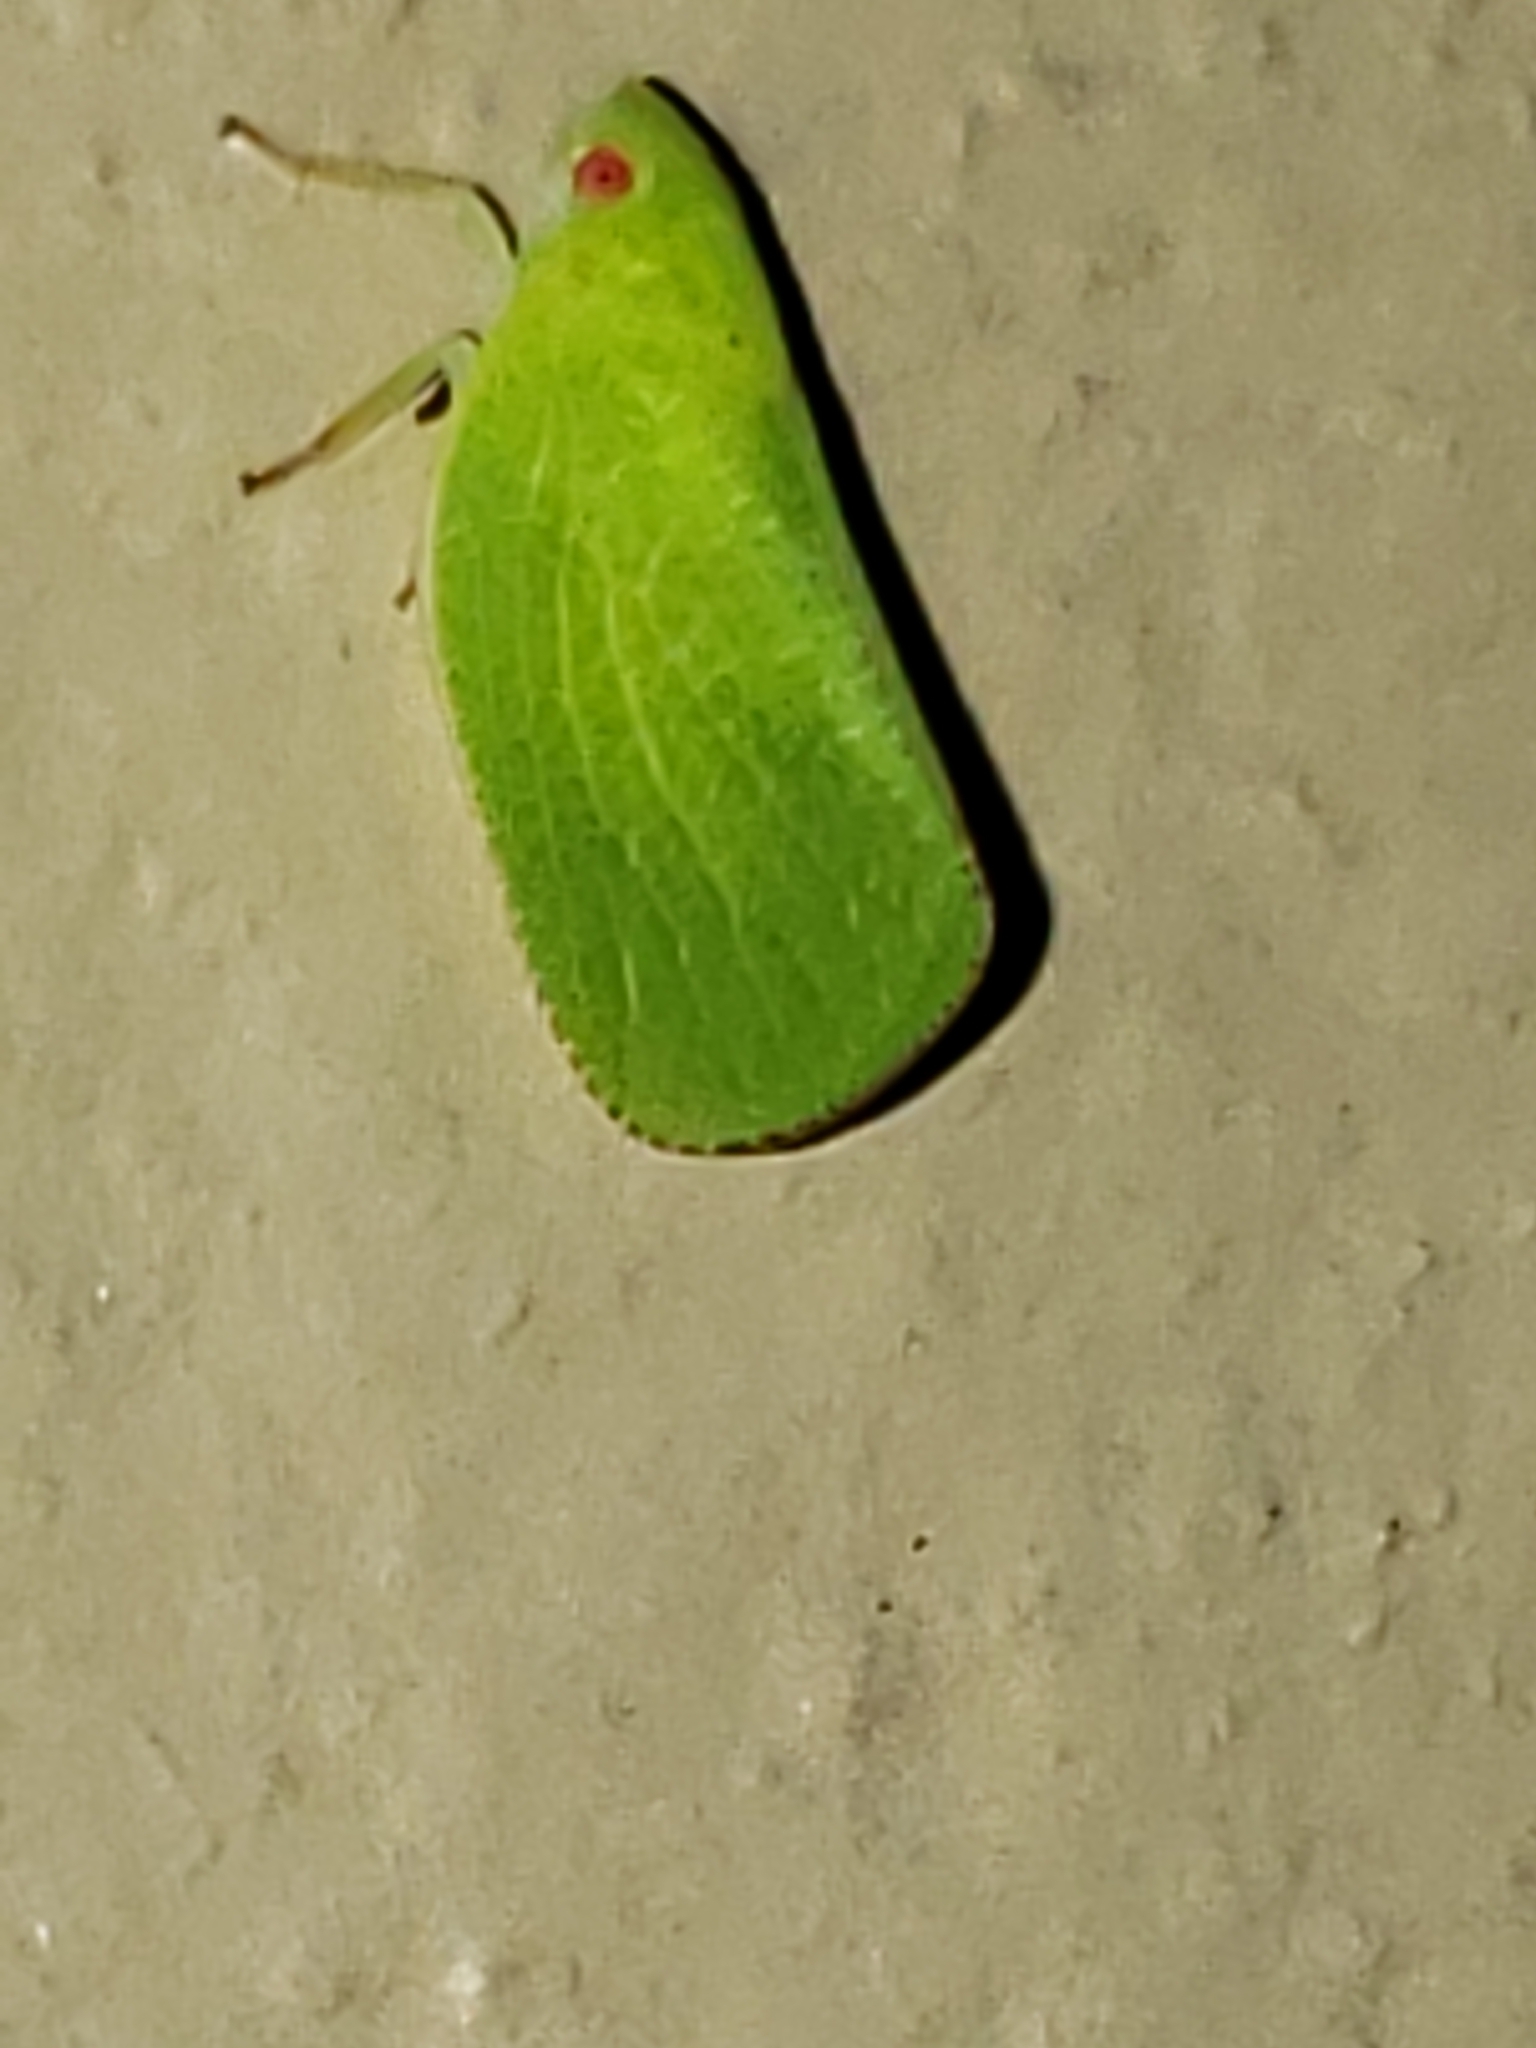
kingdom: Animalia
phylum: Arthropoda
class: Insecta
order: Hemiptera
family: Acanaloniidae
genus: Acanalonia
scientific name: Acanalonia conica
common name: Green cone-headed planthopper
